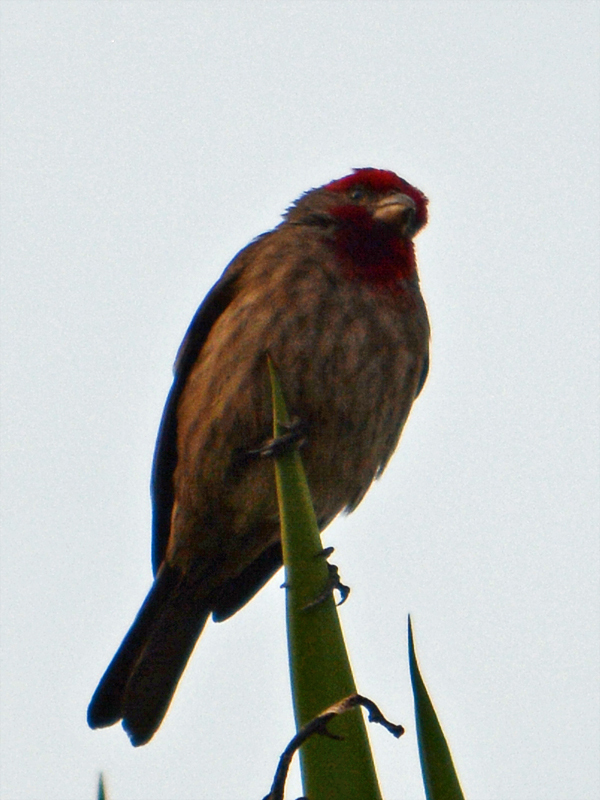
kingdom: Animalia
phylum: Chordata
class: Aves
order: Passeriformes
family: Fringillidae
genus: Haemorhous
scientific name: Haemorhous mexicanus
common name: House finch
